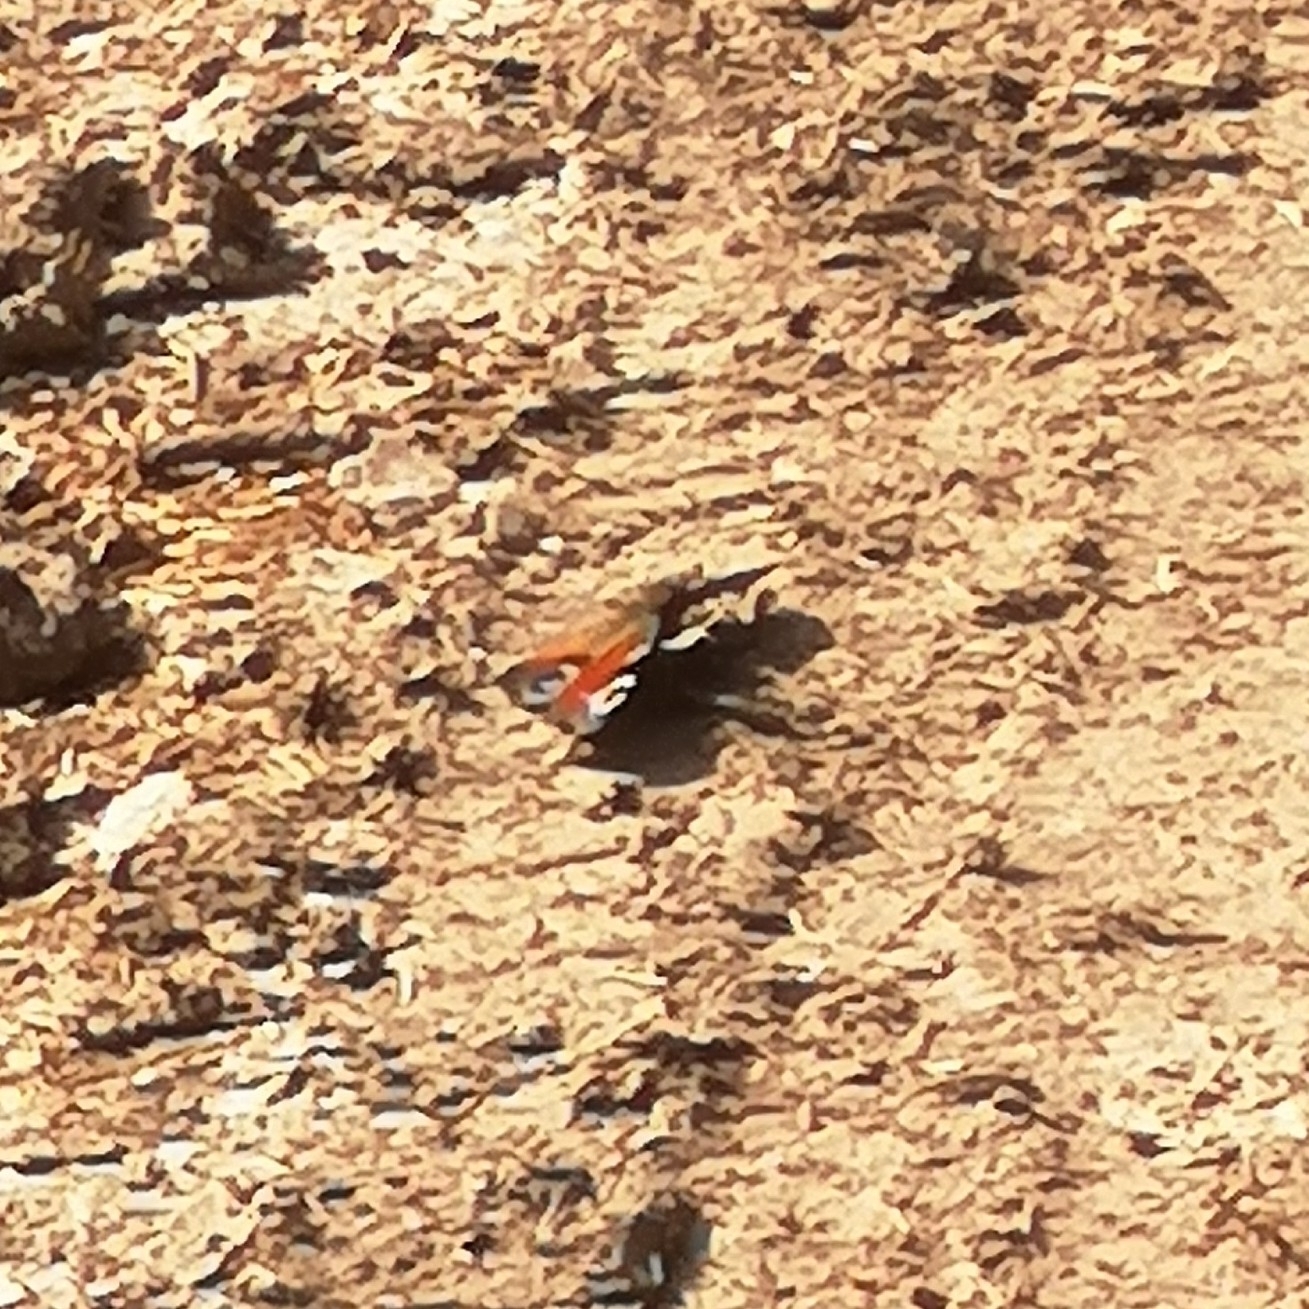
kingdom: Animalia
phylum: Arthropoda
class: Insecta
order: Lepidoptera
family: Nymphalidae
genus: Aglais
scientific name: Aglais io
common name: Peacock
